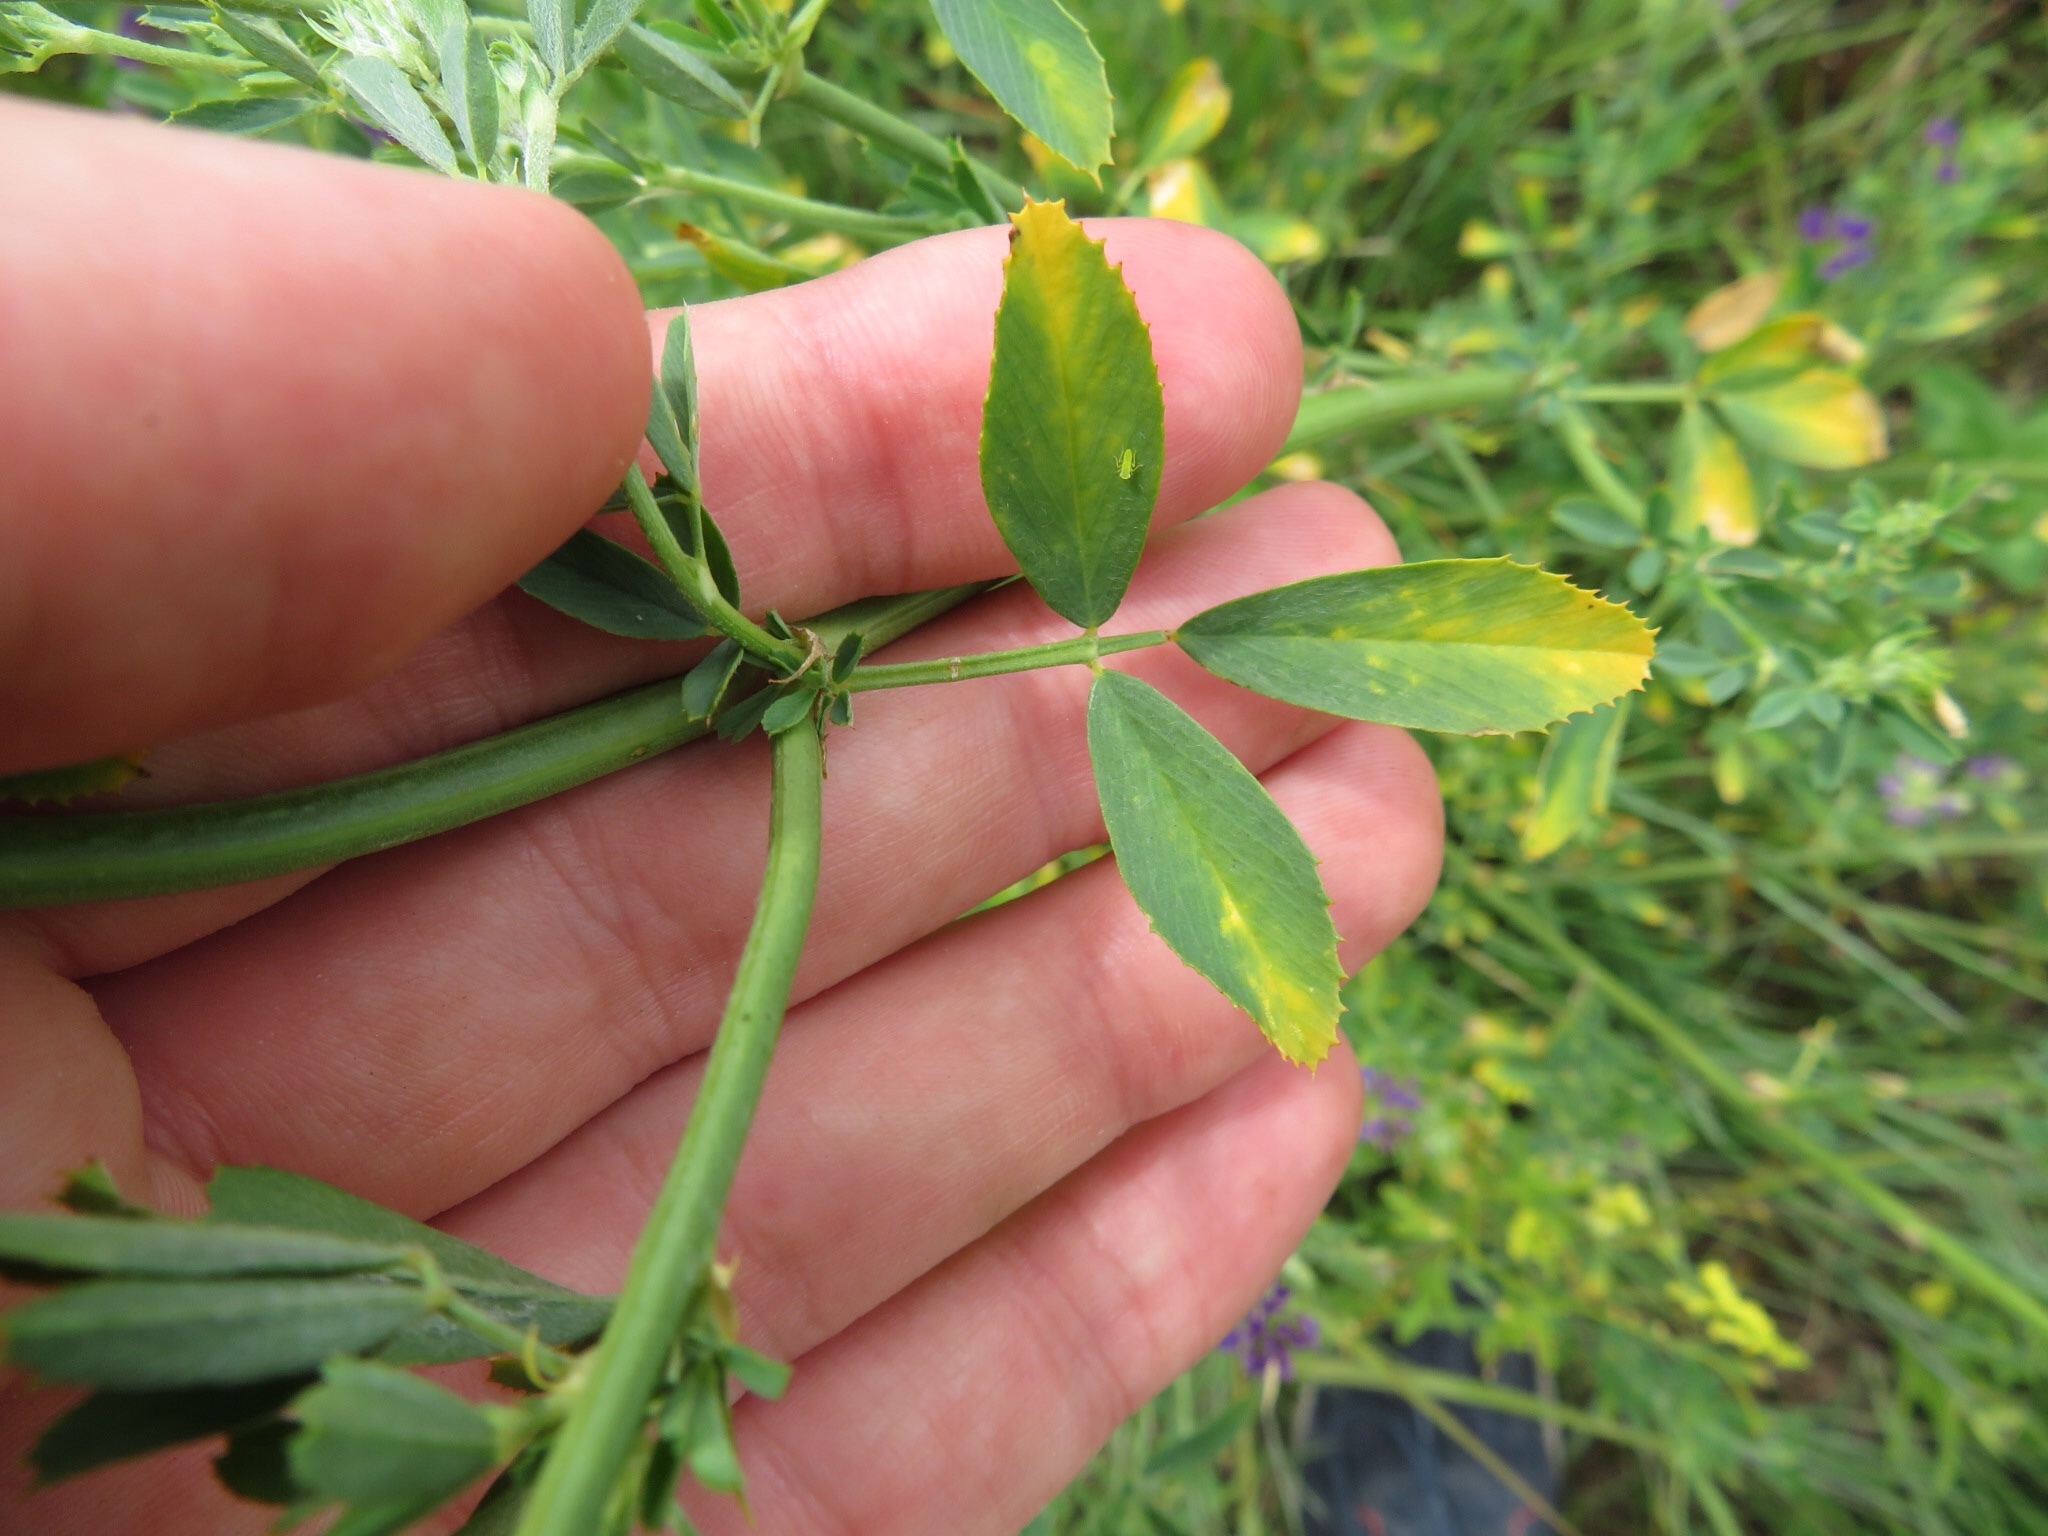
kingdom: Plantae
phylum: Tracheophyta
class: Magnoliopsida
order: Fabales
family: Fabaceae
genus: Medicago
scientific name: Medicago sativa
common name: Alfalfa
